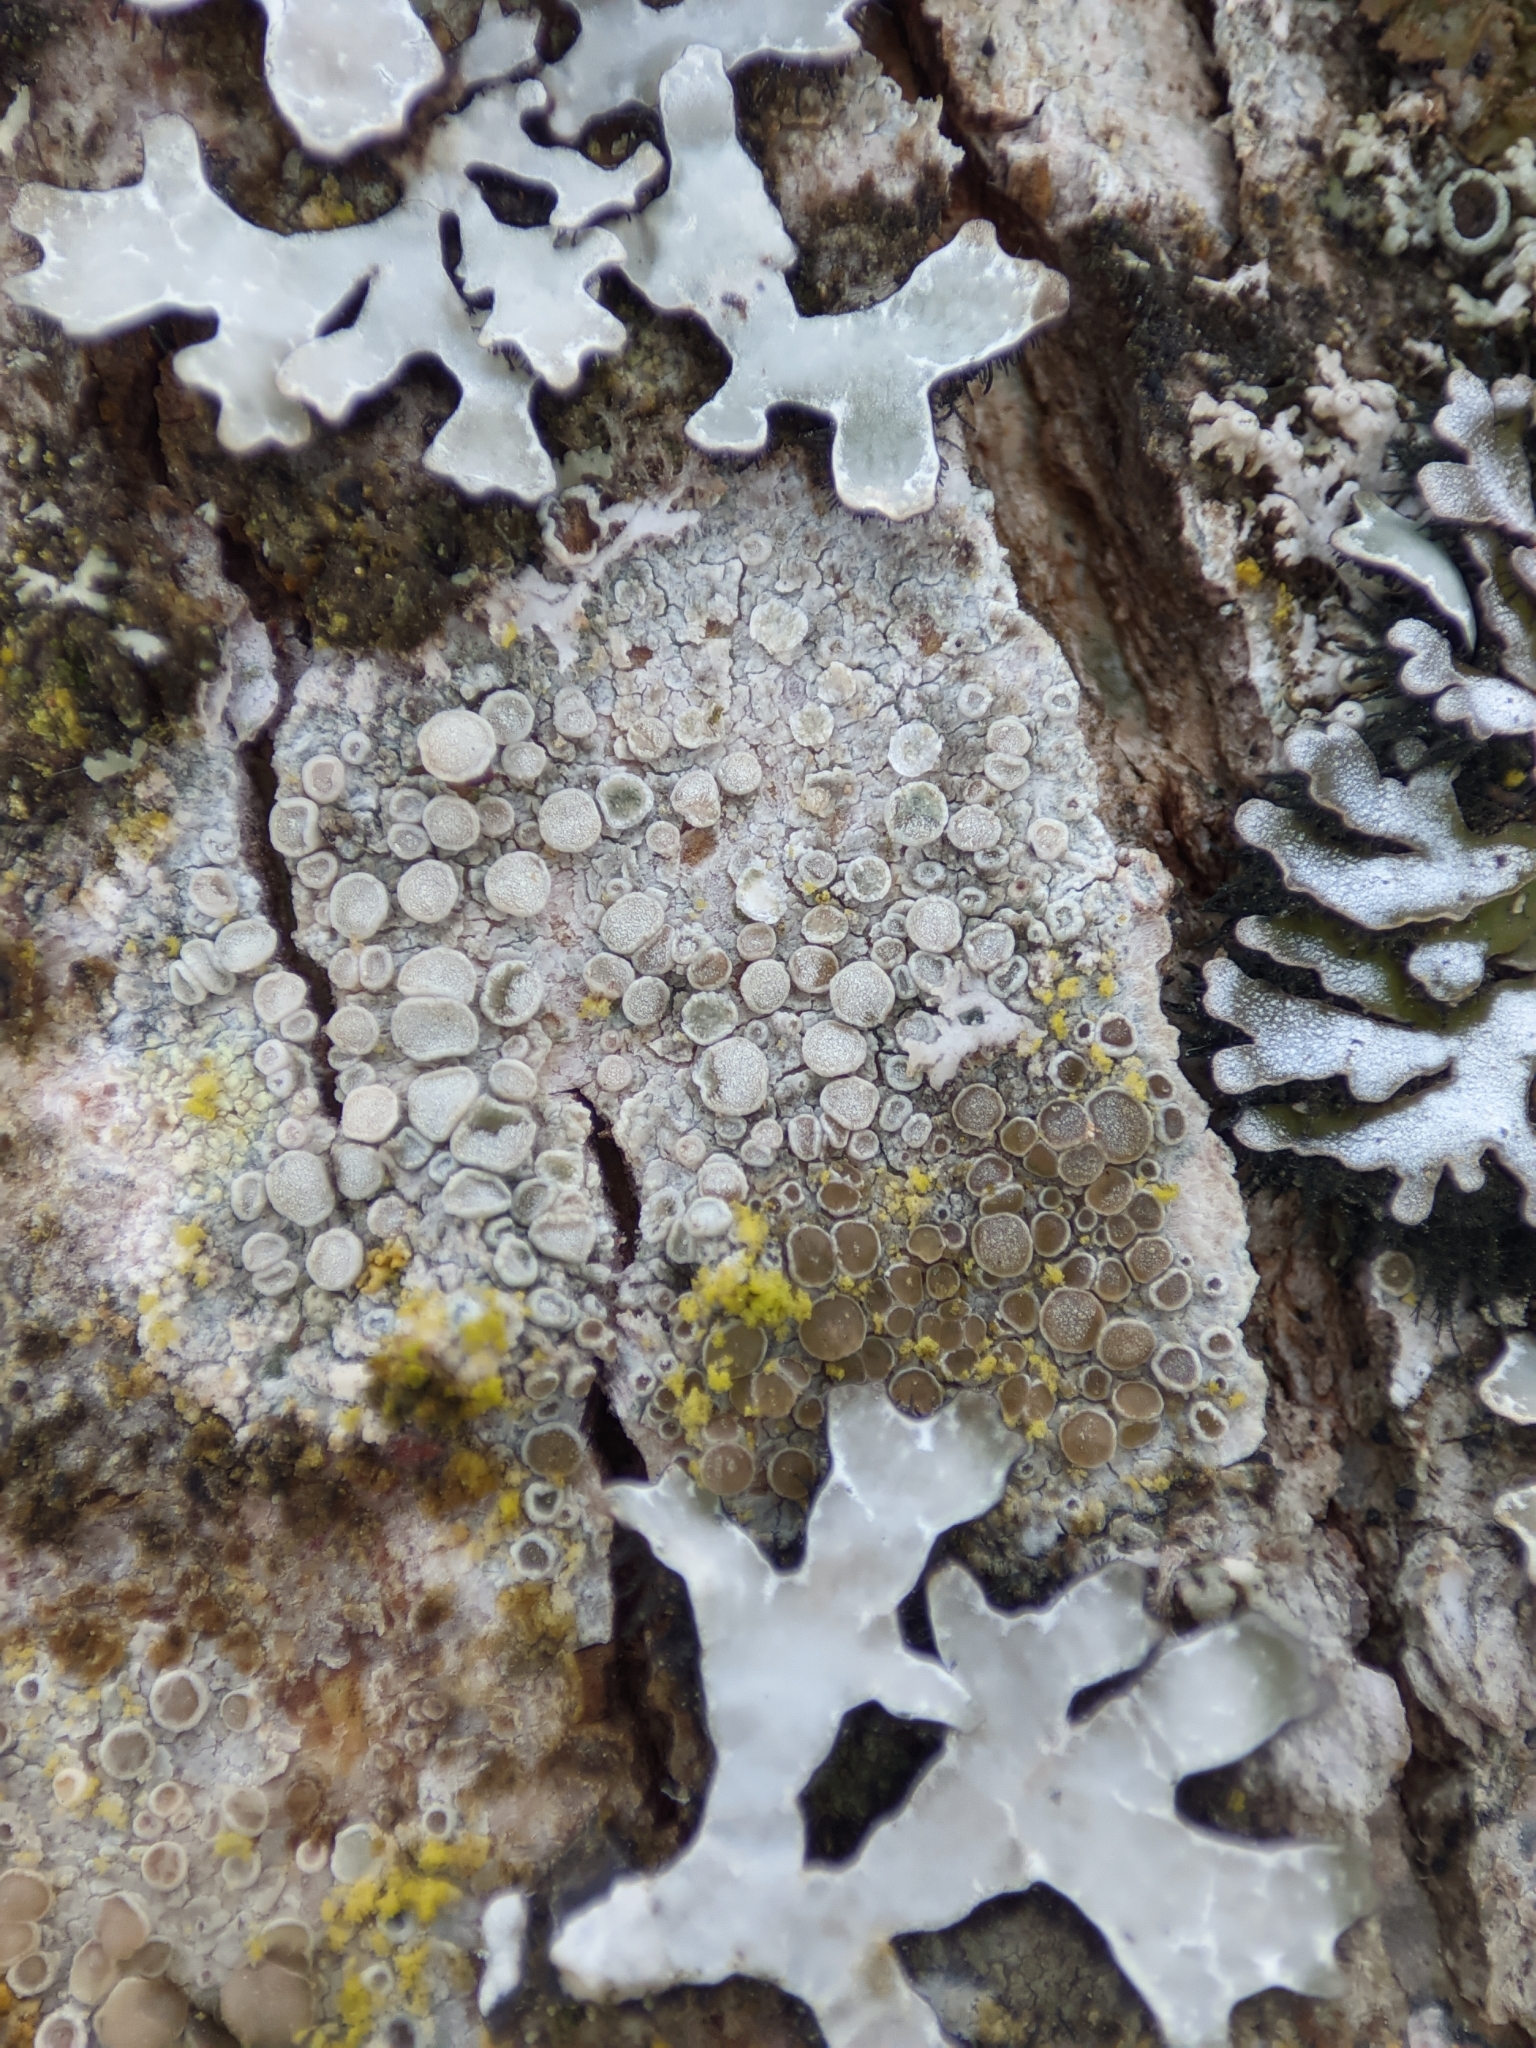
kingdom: Fungi
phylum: Ascomycota
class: Lecanoromycetes
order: Lecanorales
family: Lecanoraceae
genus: Lecanora
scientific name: Lecanora hybocarpa
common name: Bumpy rim-lichen
